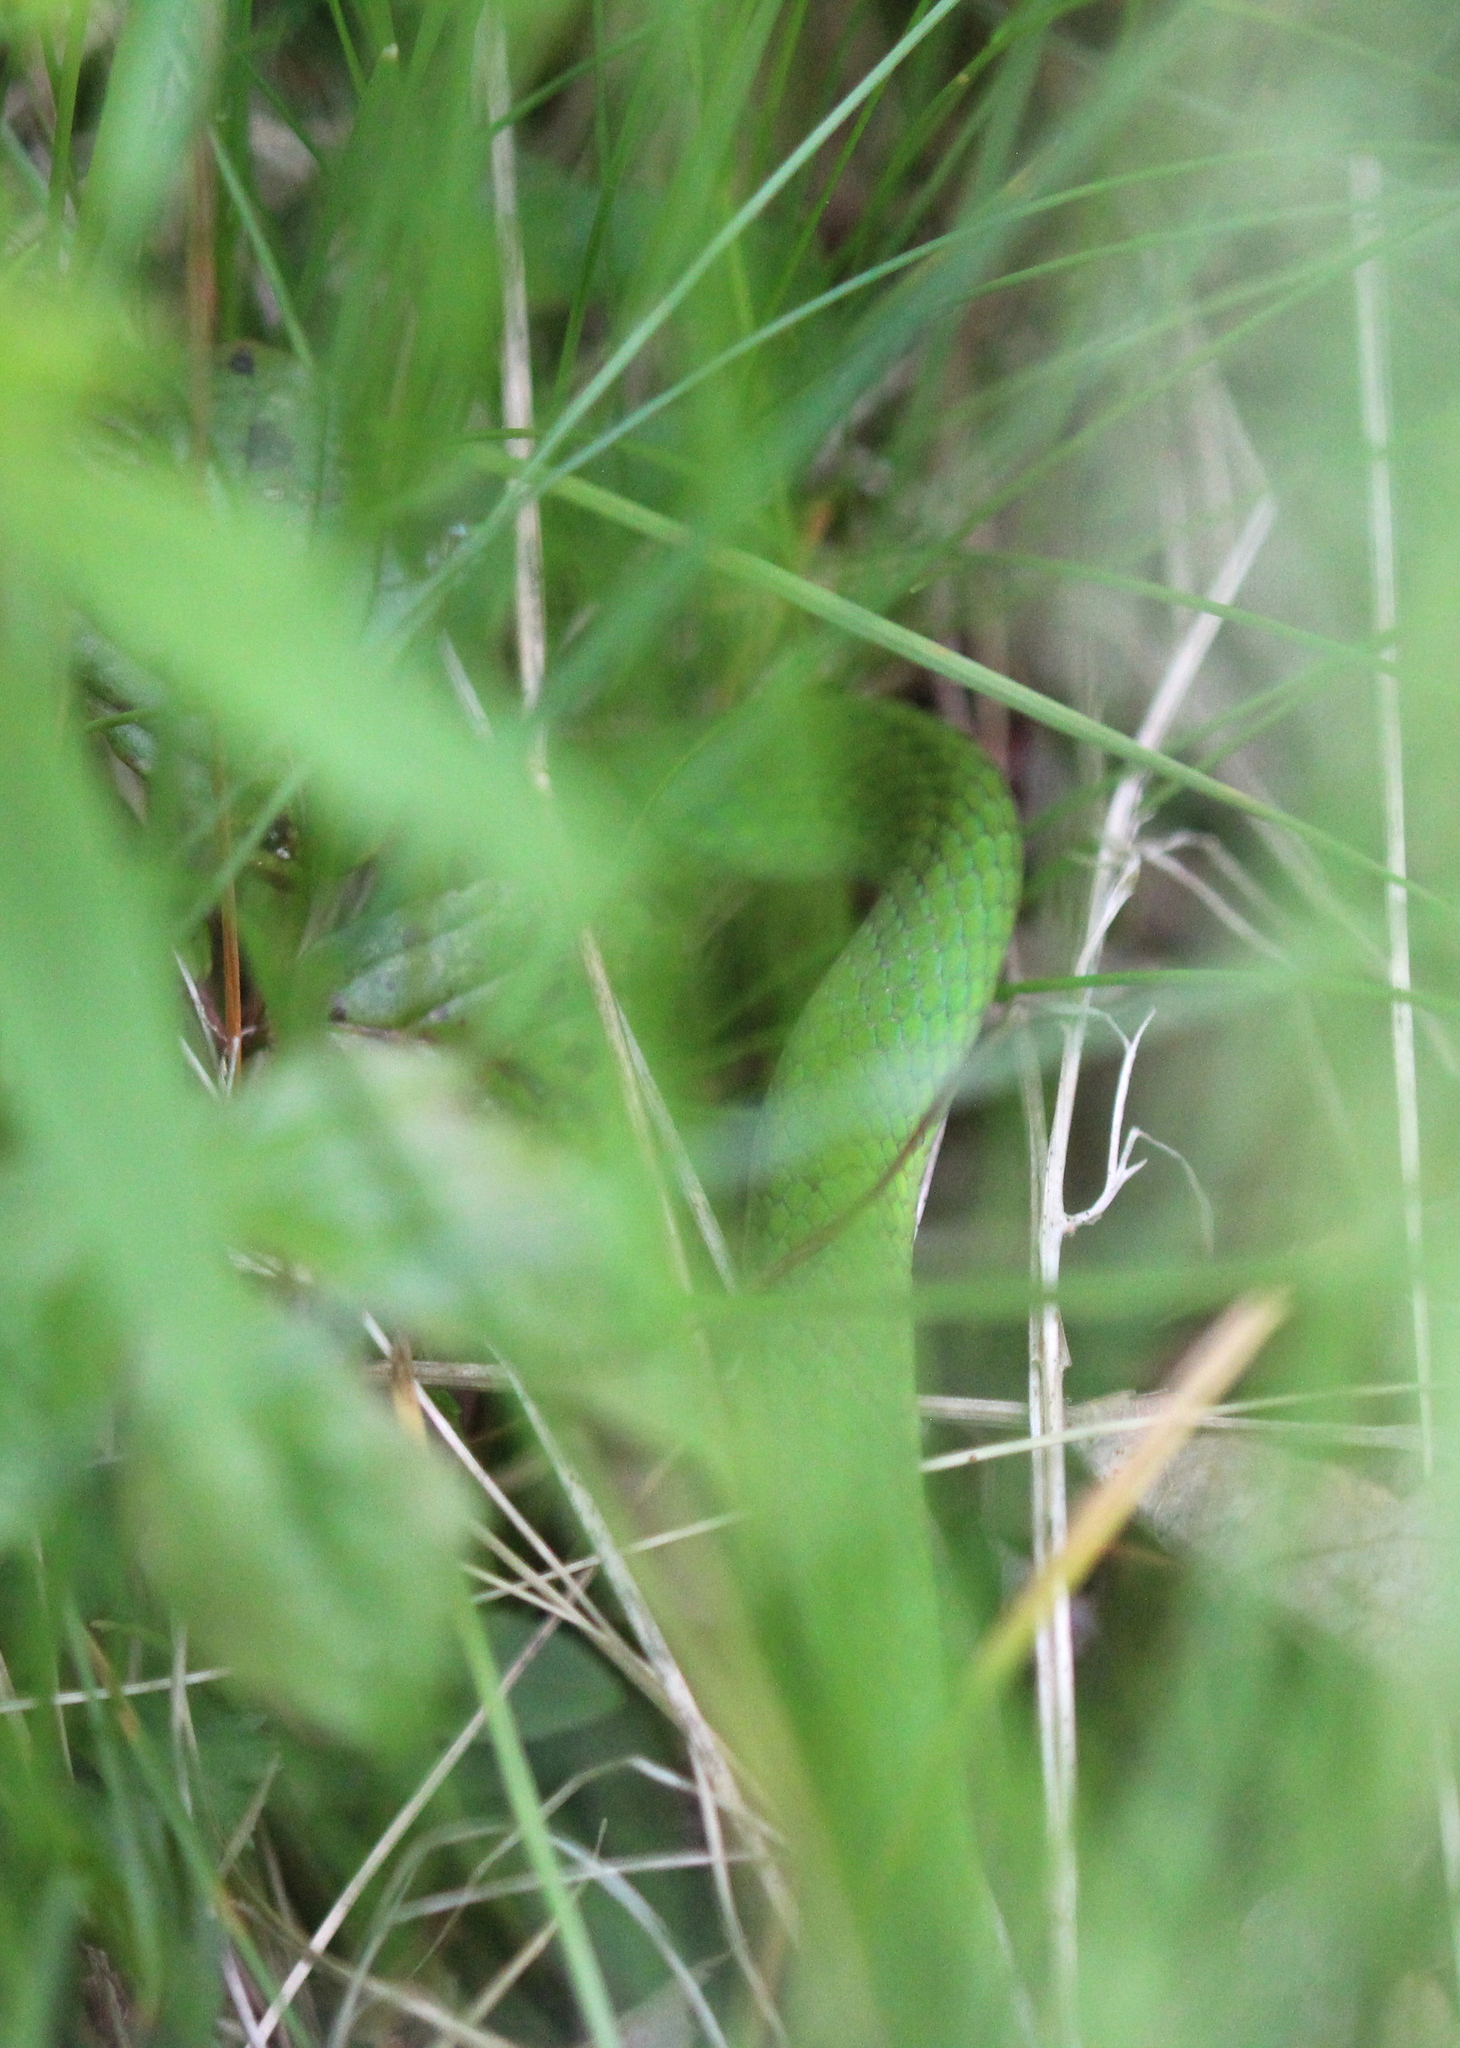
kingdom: Animalia
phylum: Chordata
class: Squamata
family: Colubridae
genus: Opheodrys
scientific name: Opheodrys vernalis
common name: Smooth green snake
